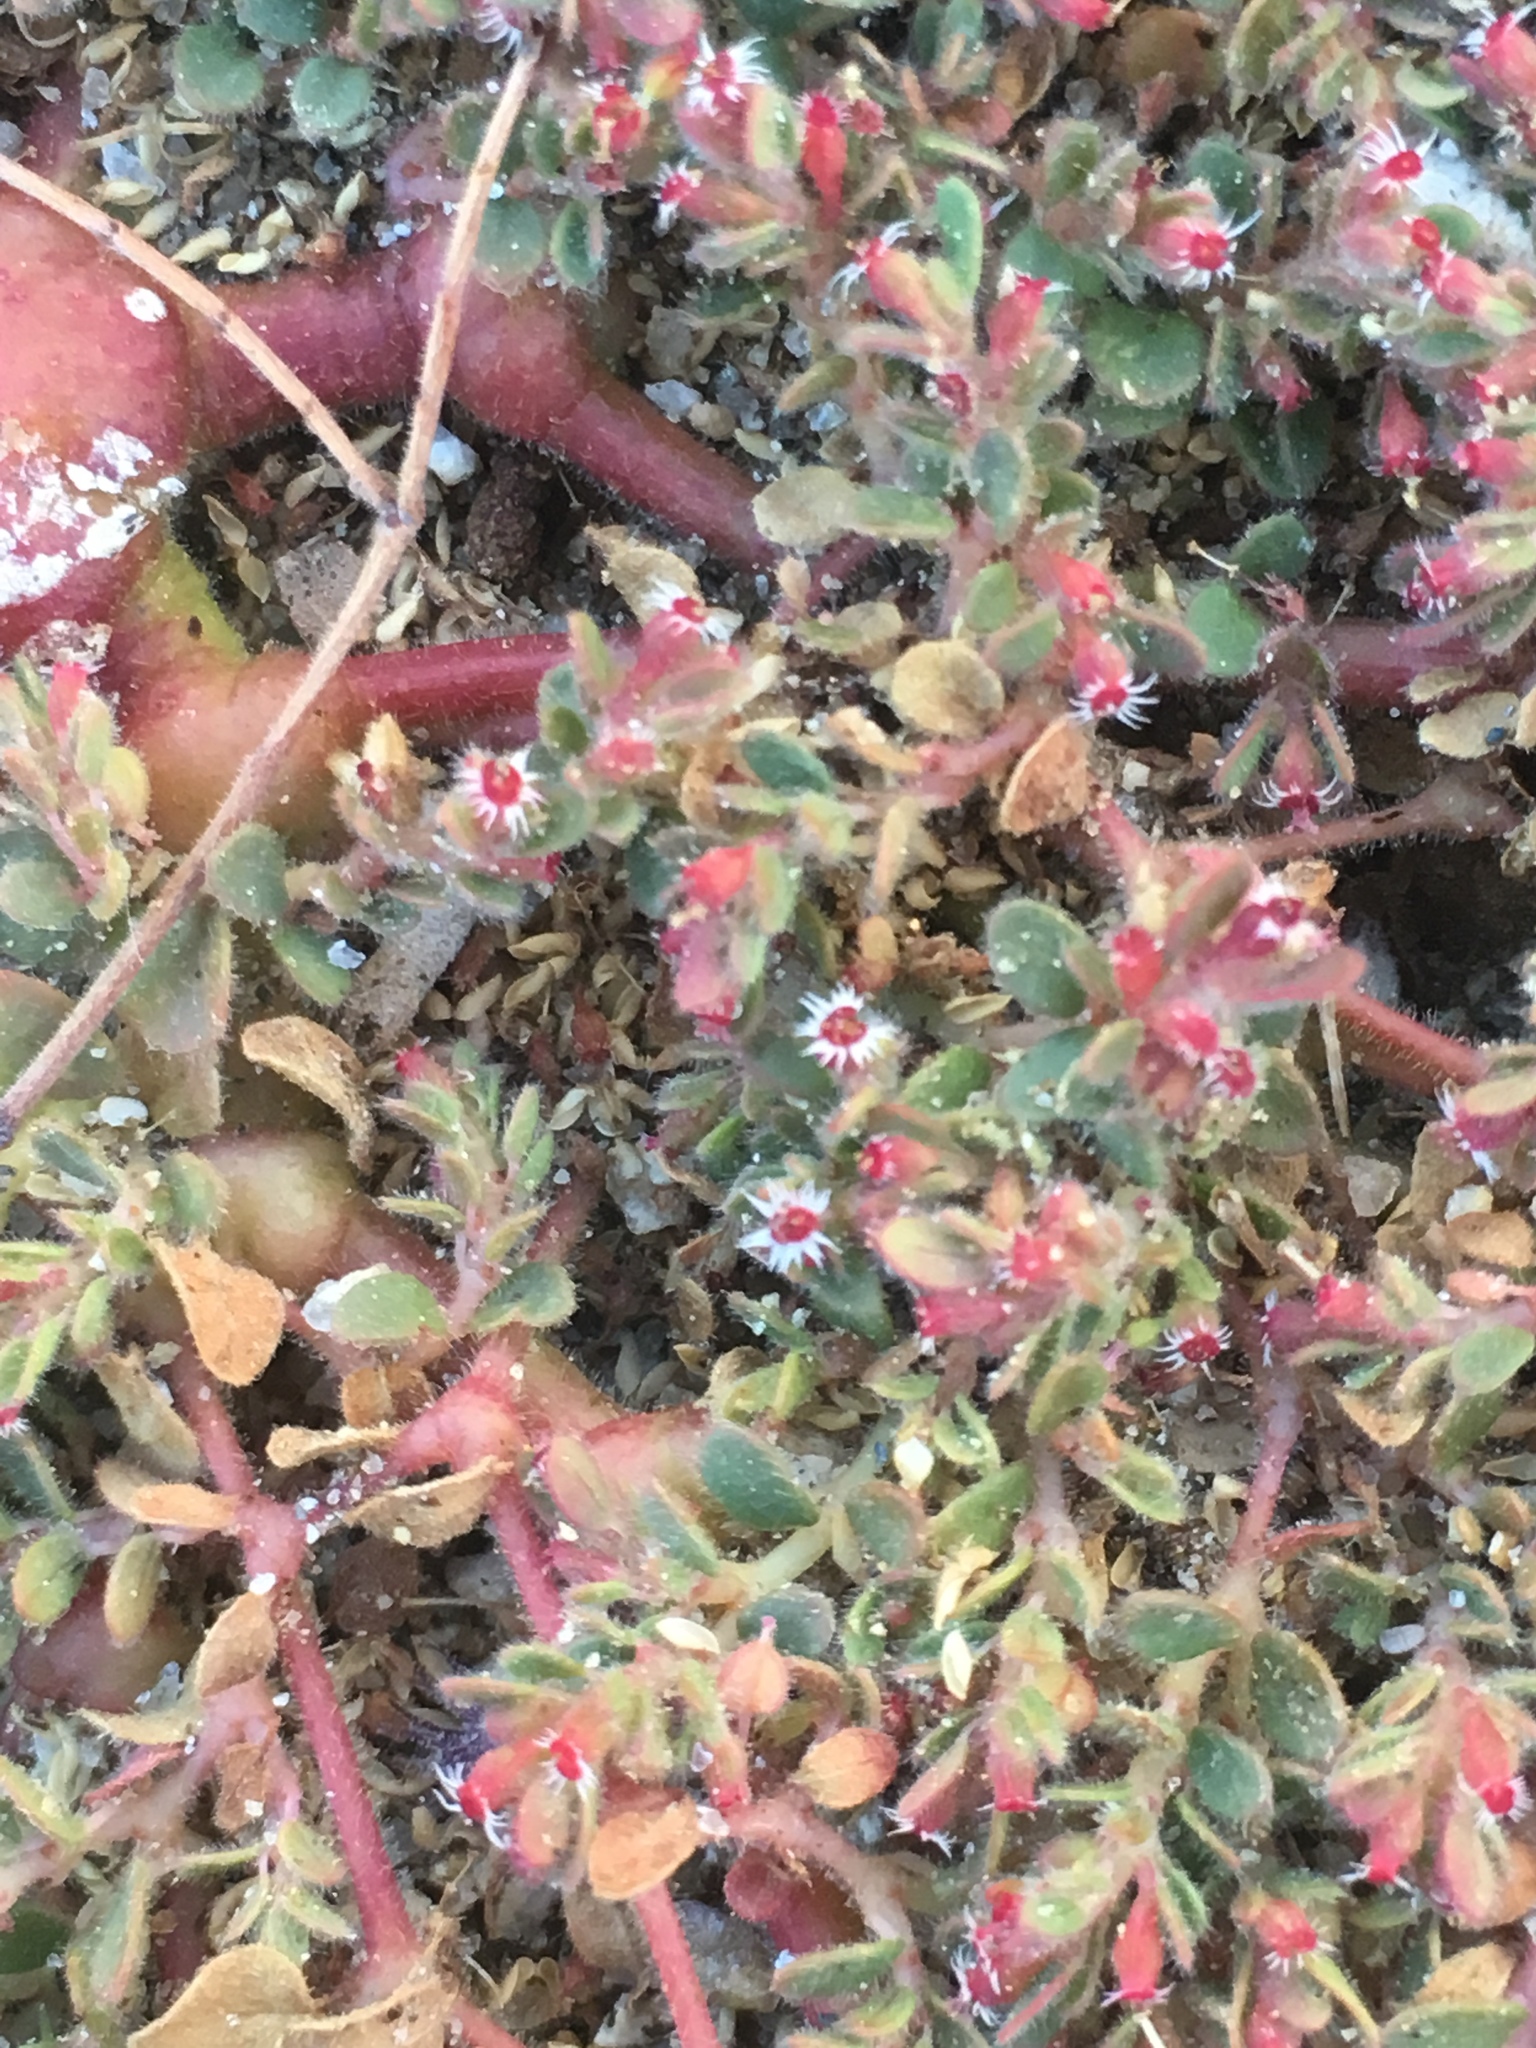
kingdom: Plantae
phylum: Tracheophyta
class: Magnoliopsida
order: Malpighiales
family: Euphorbiaceae
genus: Euphorbia
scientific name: Euphorbia setiloba
